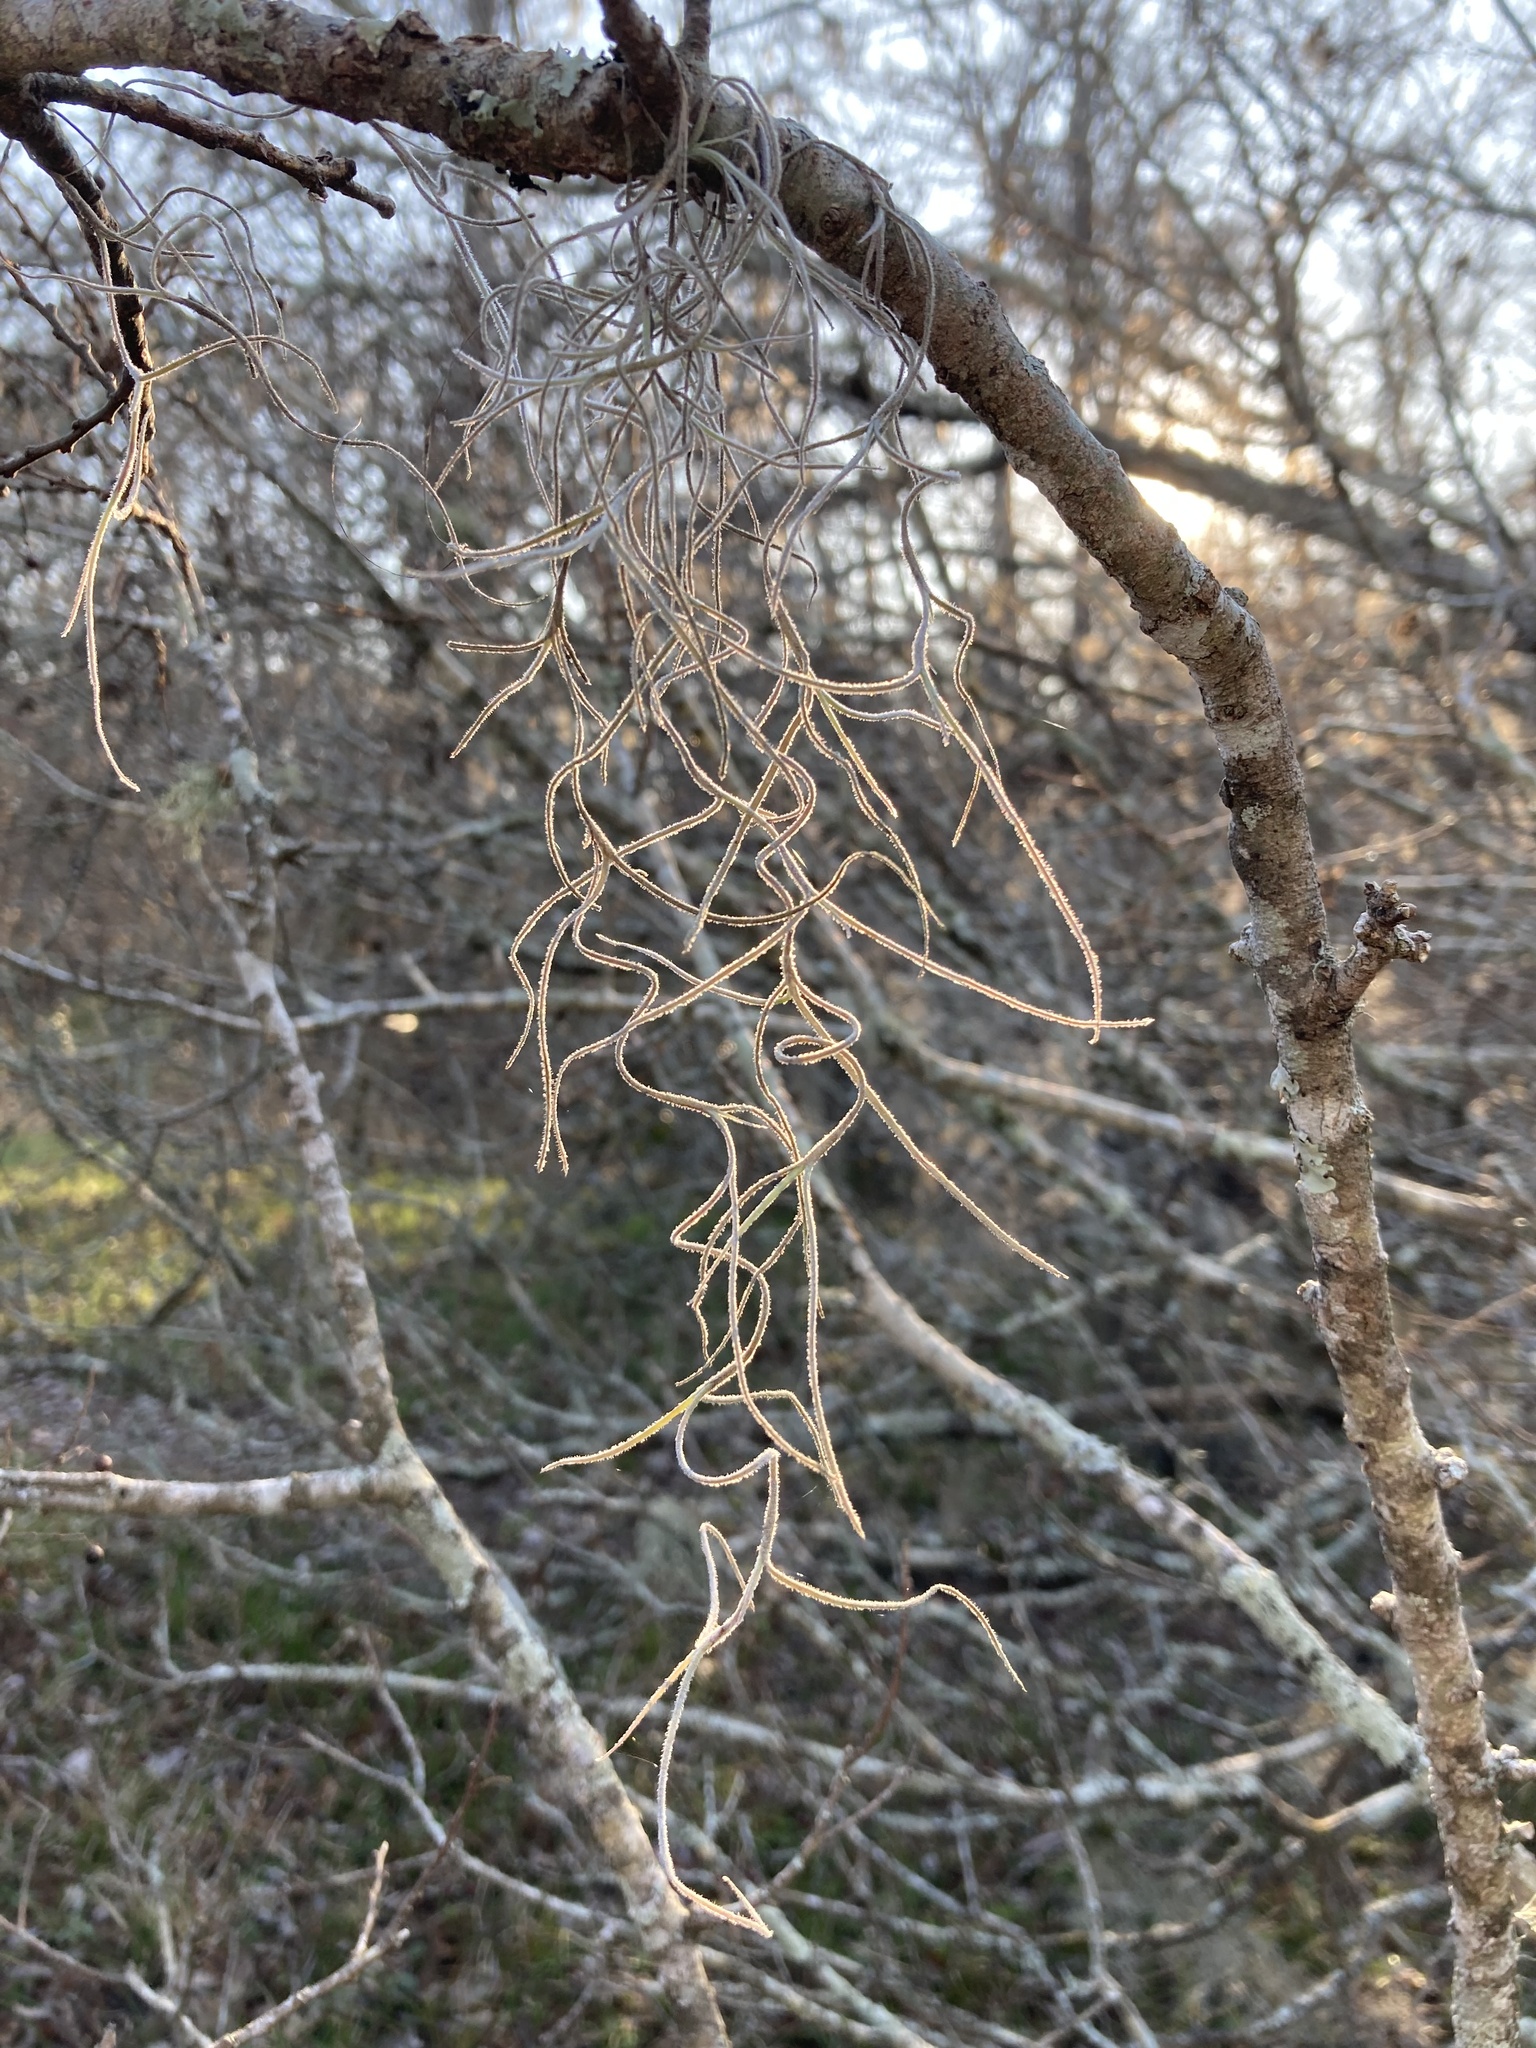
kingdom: Plantae
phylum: Tracheophyta
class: Liliopsida
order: Poales
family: Bromeliaceae
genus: Tillandsia
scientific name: Tillandsia usneoides
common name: Spanish moss
